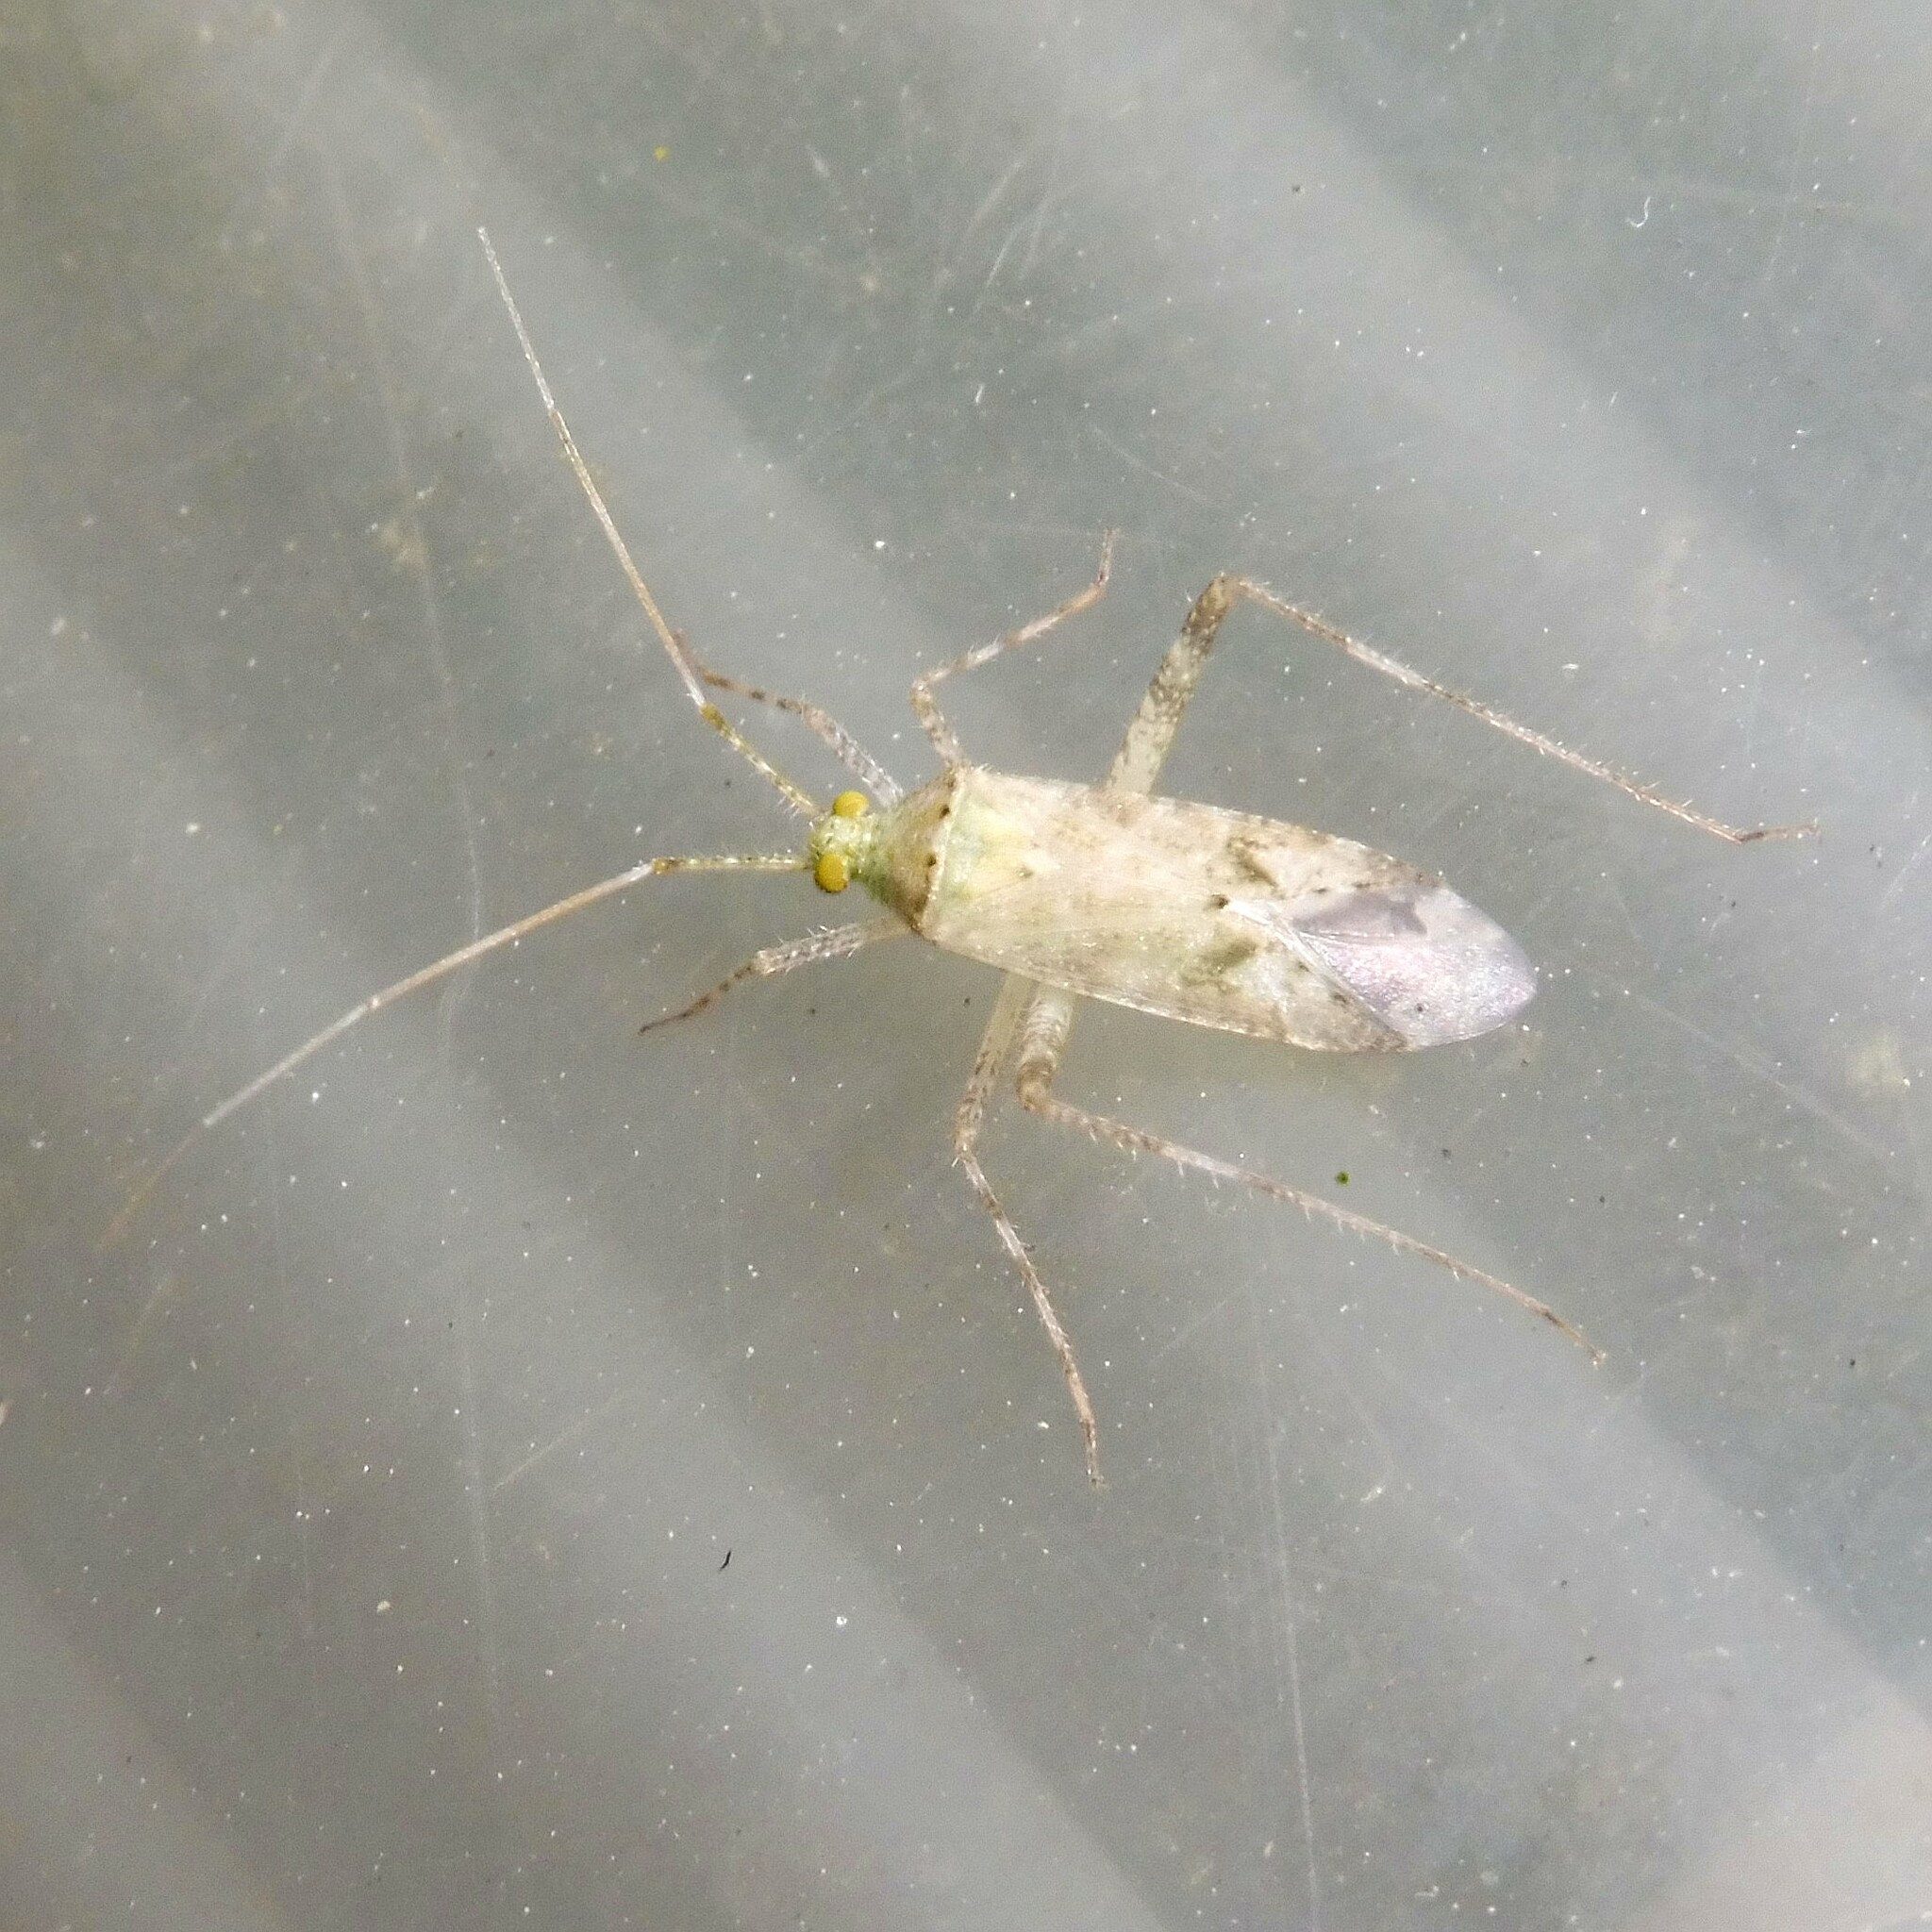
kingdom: Animalia
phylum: Arthropoda
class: Insecta
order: Hemiptera
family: Miridae
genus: Phytocoris
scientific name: Phytocoris longipennis
